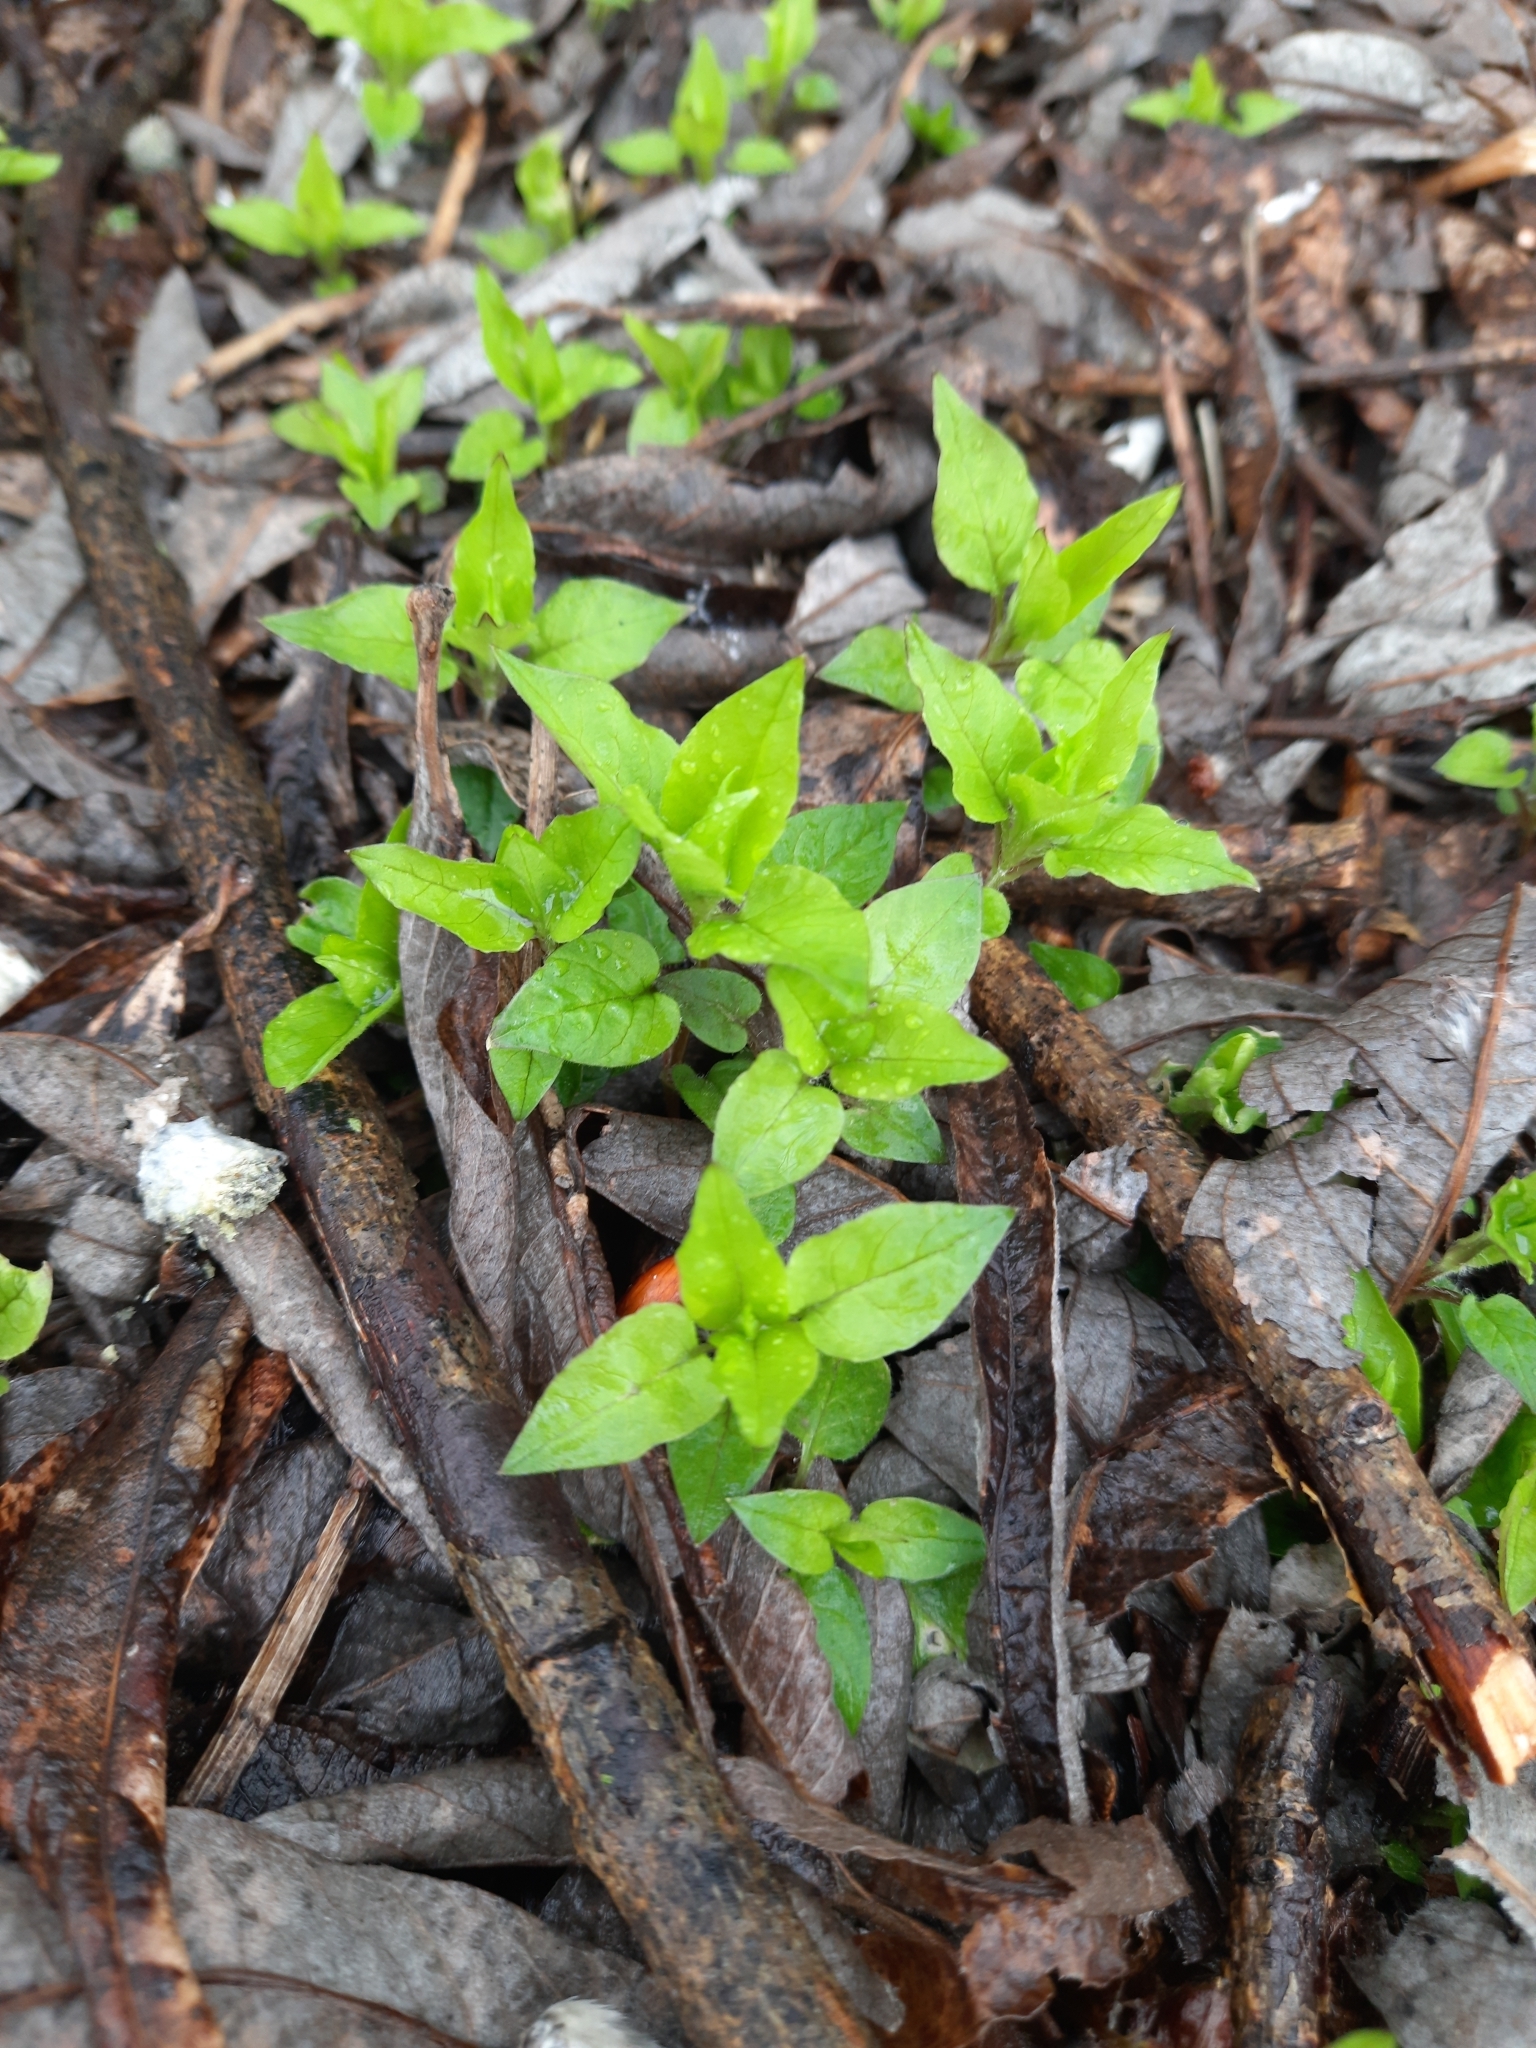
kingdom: Plantae
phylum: Tracheophyta
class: Magnoliopsida
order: Caryophyllales
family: Caryophyllaceae
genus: Stellaria
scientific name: Stellaria media
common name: Common chickweed
